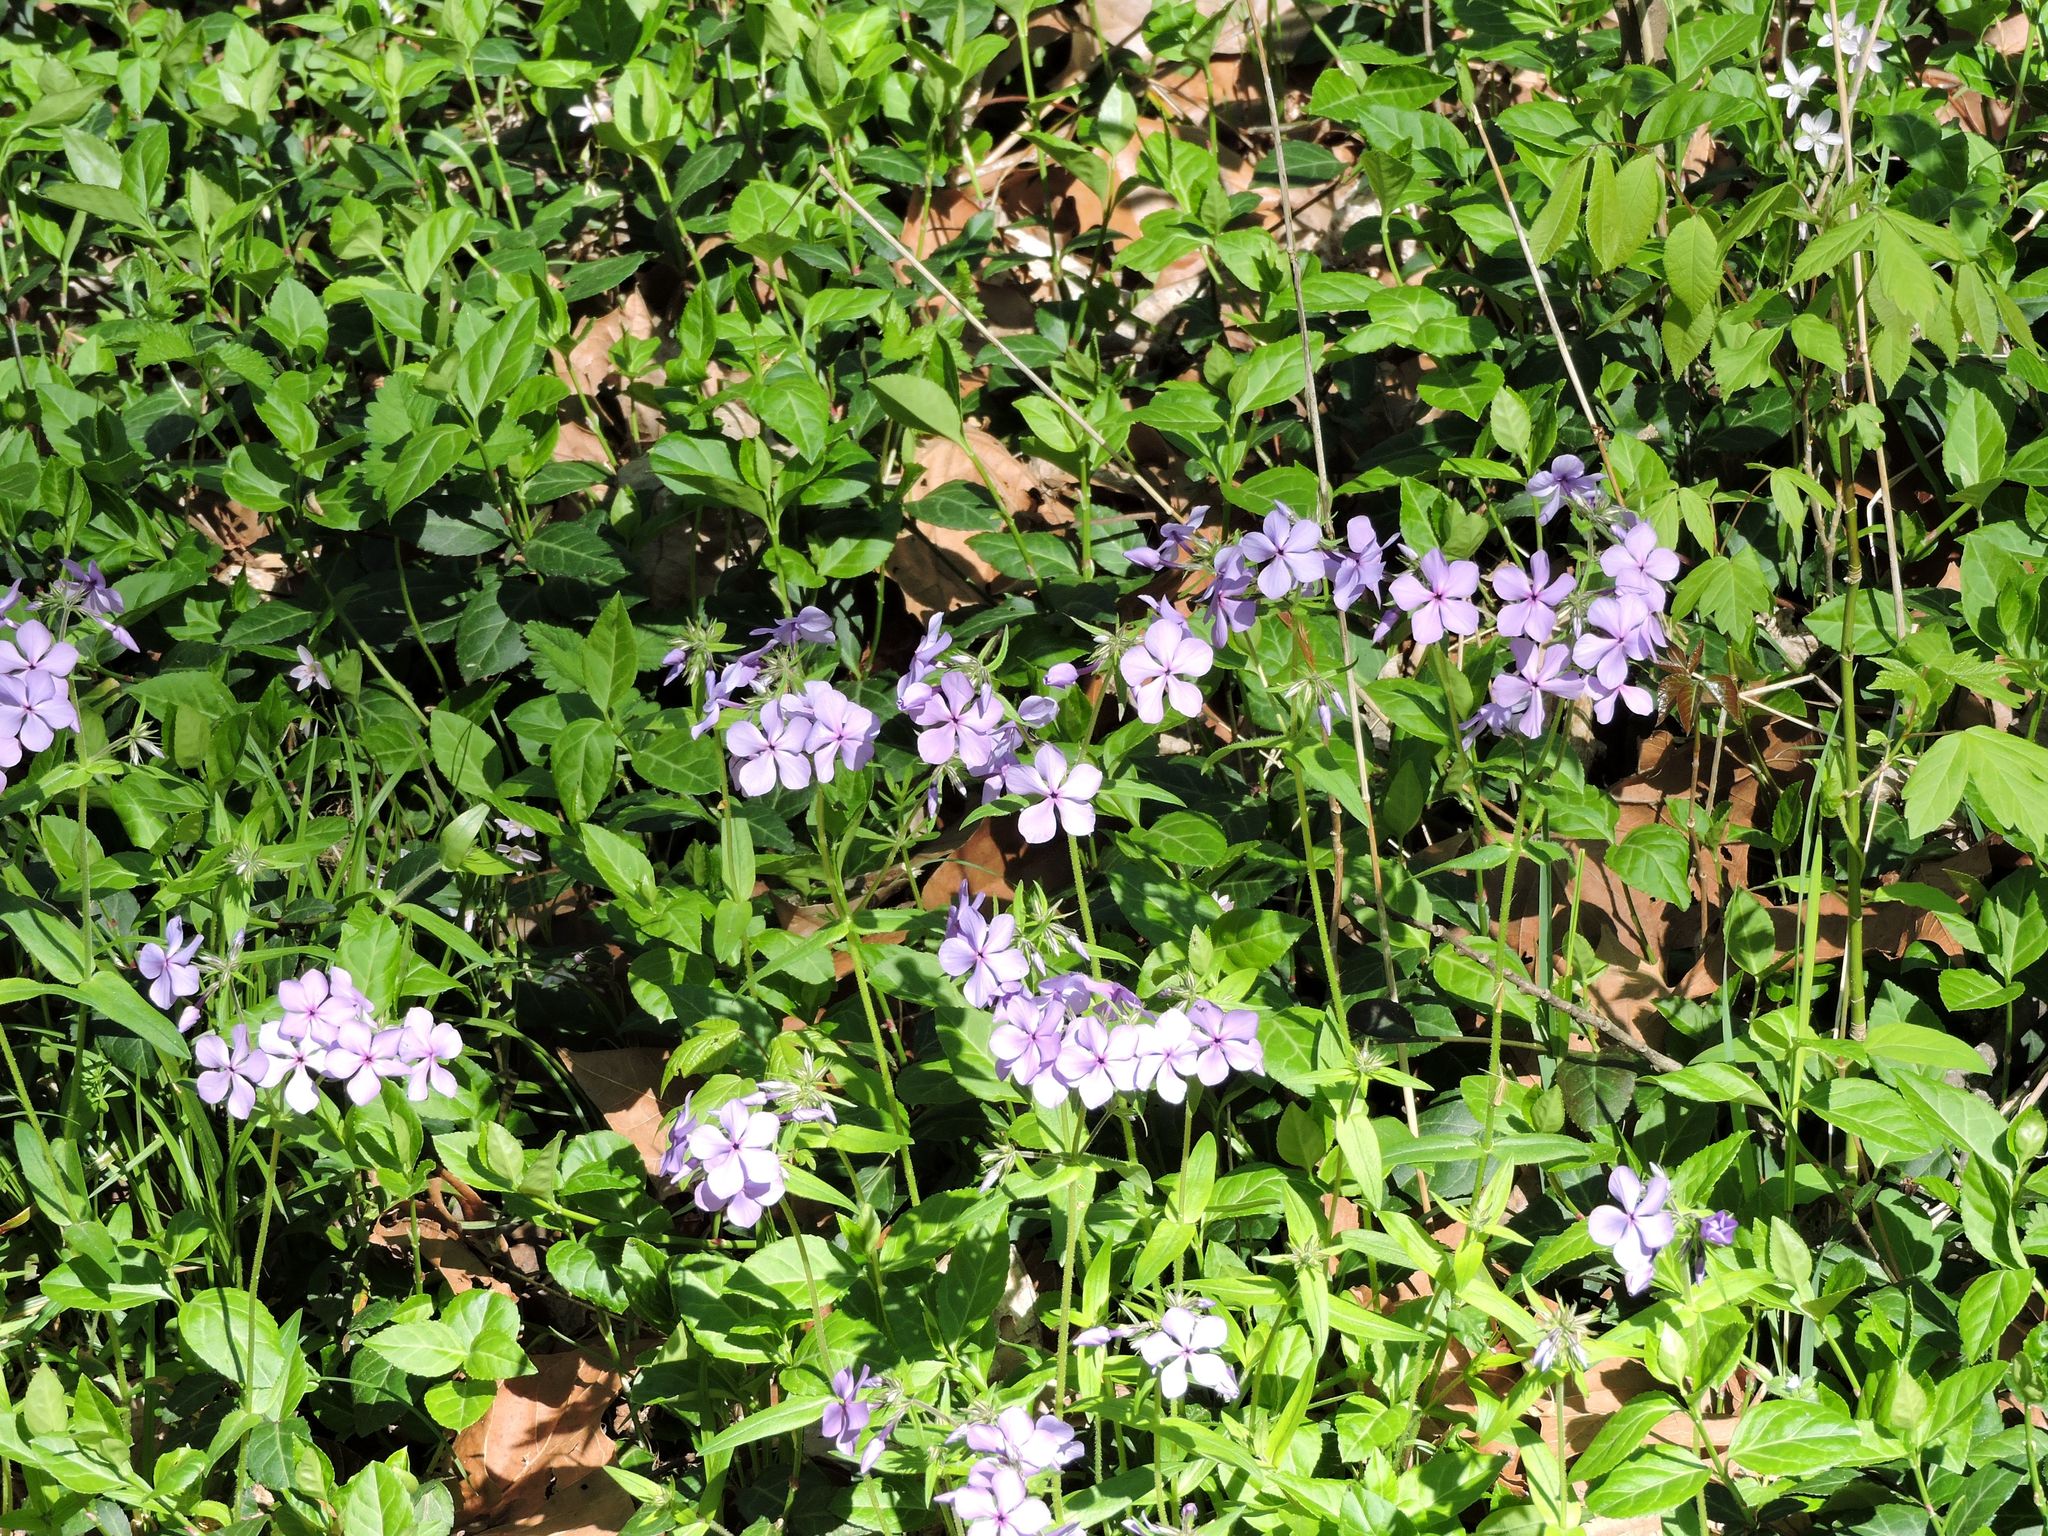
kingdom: Plantae
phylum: Tracheophyta
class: Magnoliopsida
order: Ericales
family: Polemoniaceae
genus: Phlox
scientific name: Phlox divaricata
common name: Blue phlox
